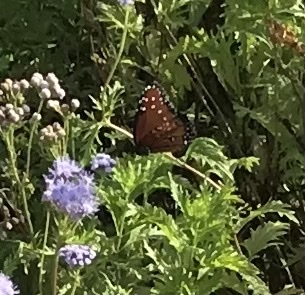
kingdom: Animalia
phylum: Arthropoda
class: Insecta
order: Lepidoptera
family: Nymphalidae
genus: Danaus
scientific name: Danaus gilippus
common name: Queen
